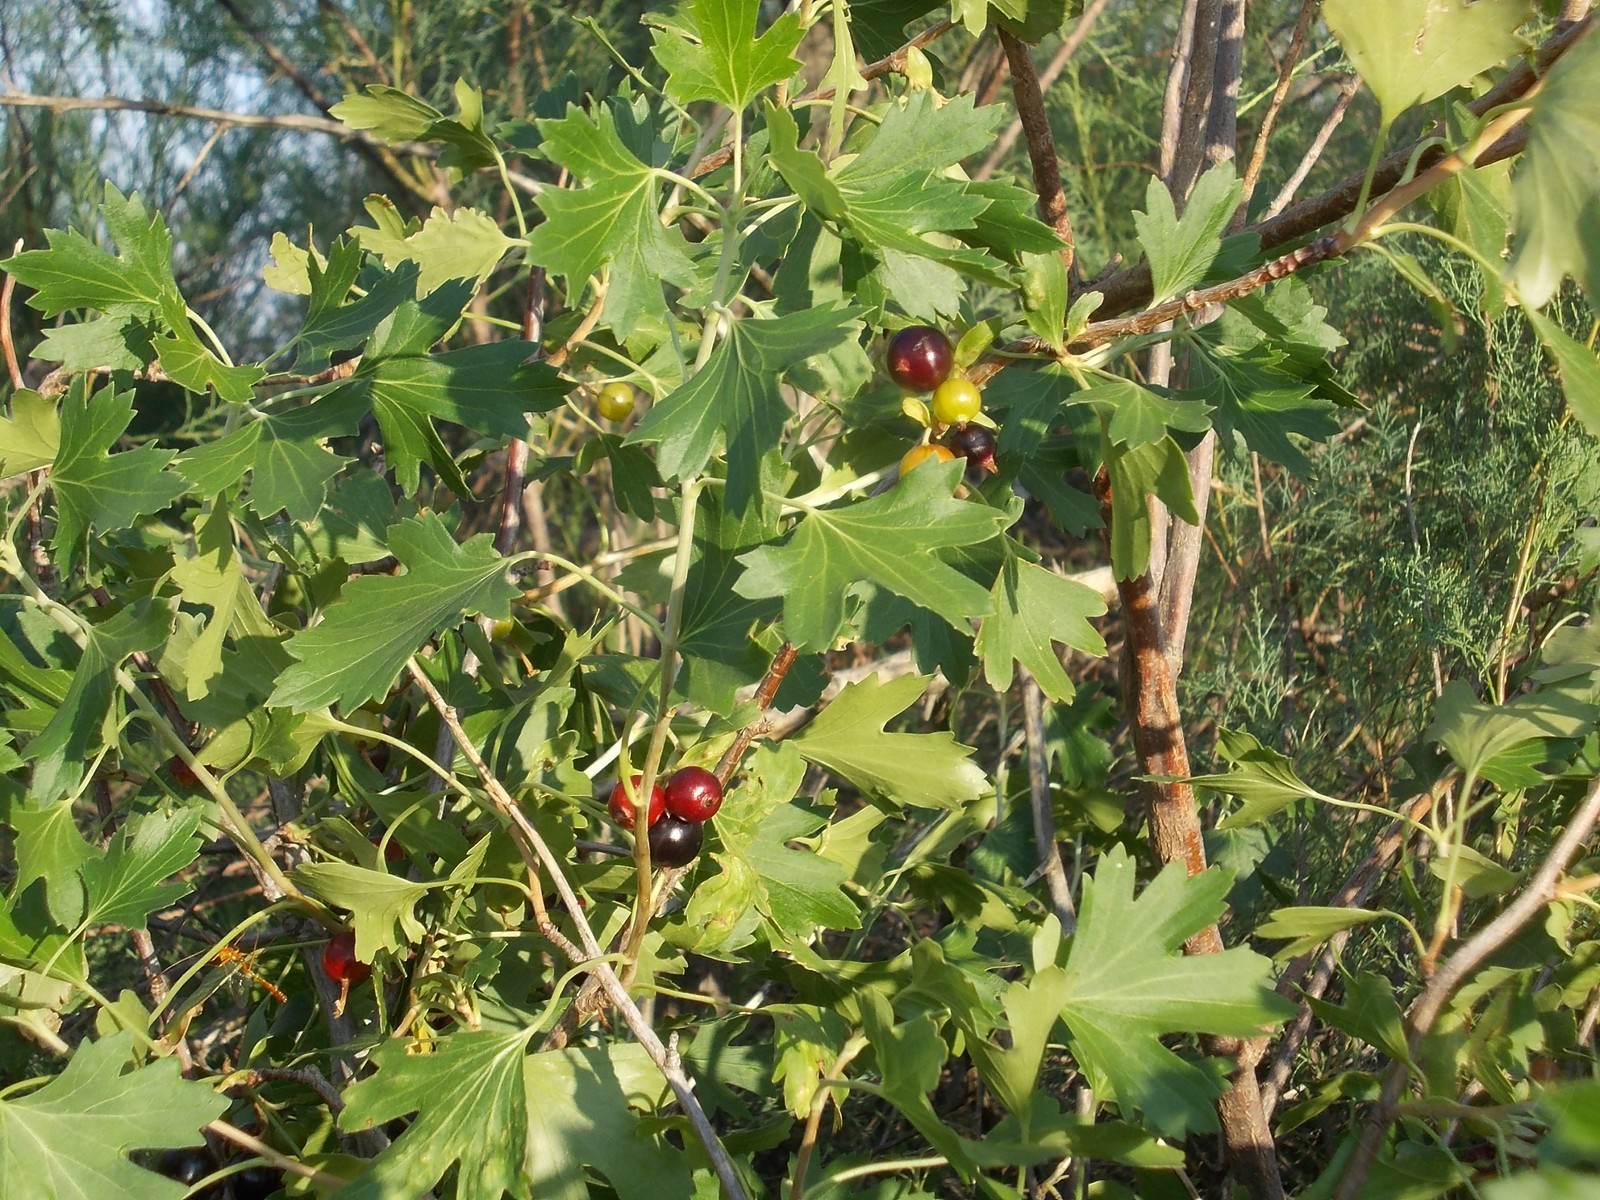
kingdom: Plantae
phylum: Tracheophyta
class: Magnoliopsida
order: Saxifragales
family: Grossulariaceae
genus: Ribes
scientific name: Ribes aureum
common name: Golden currant
